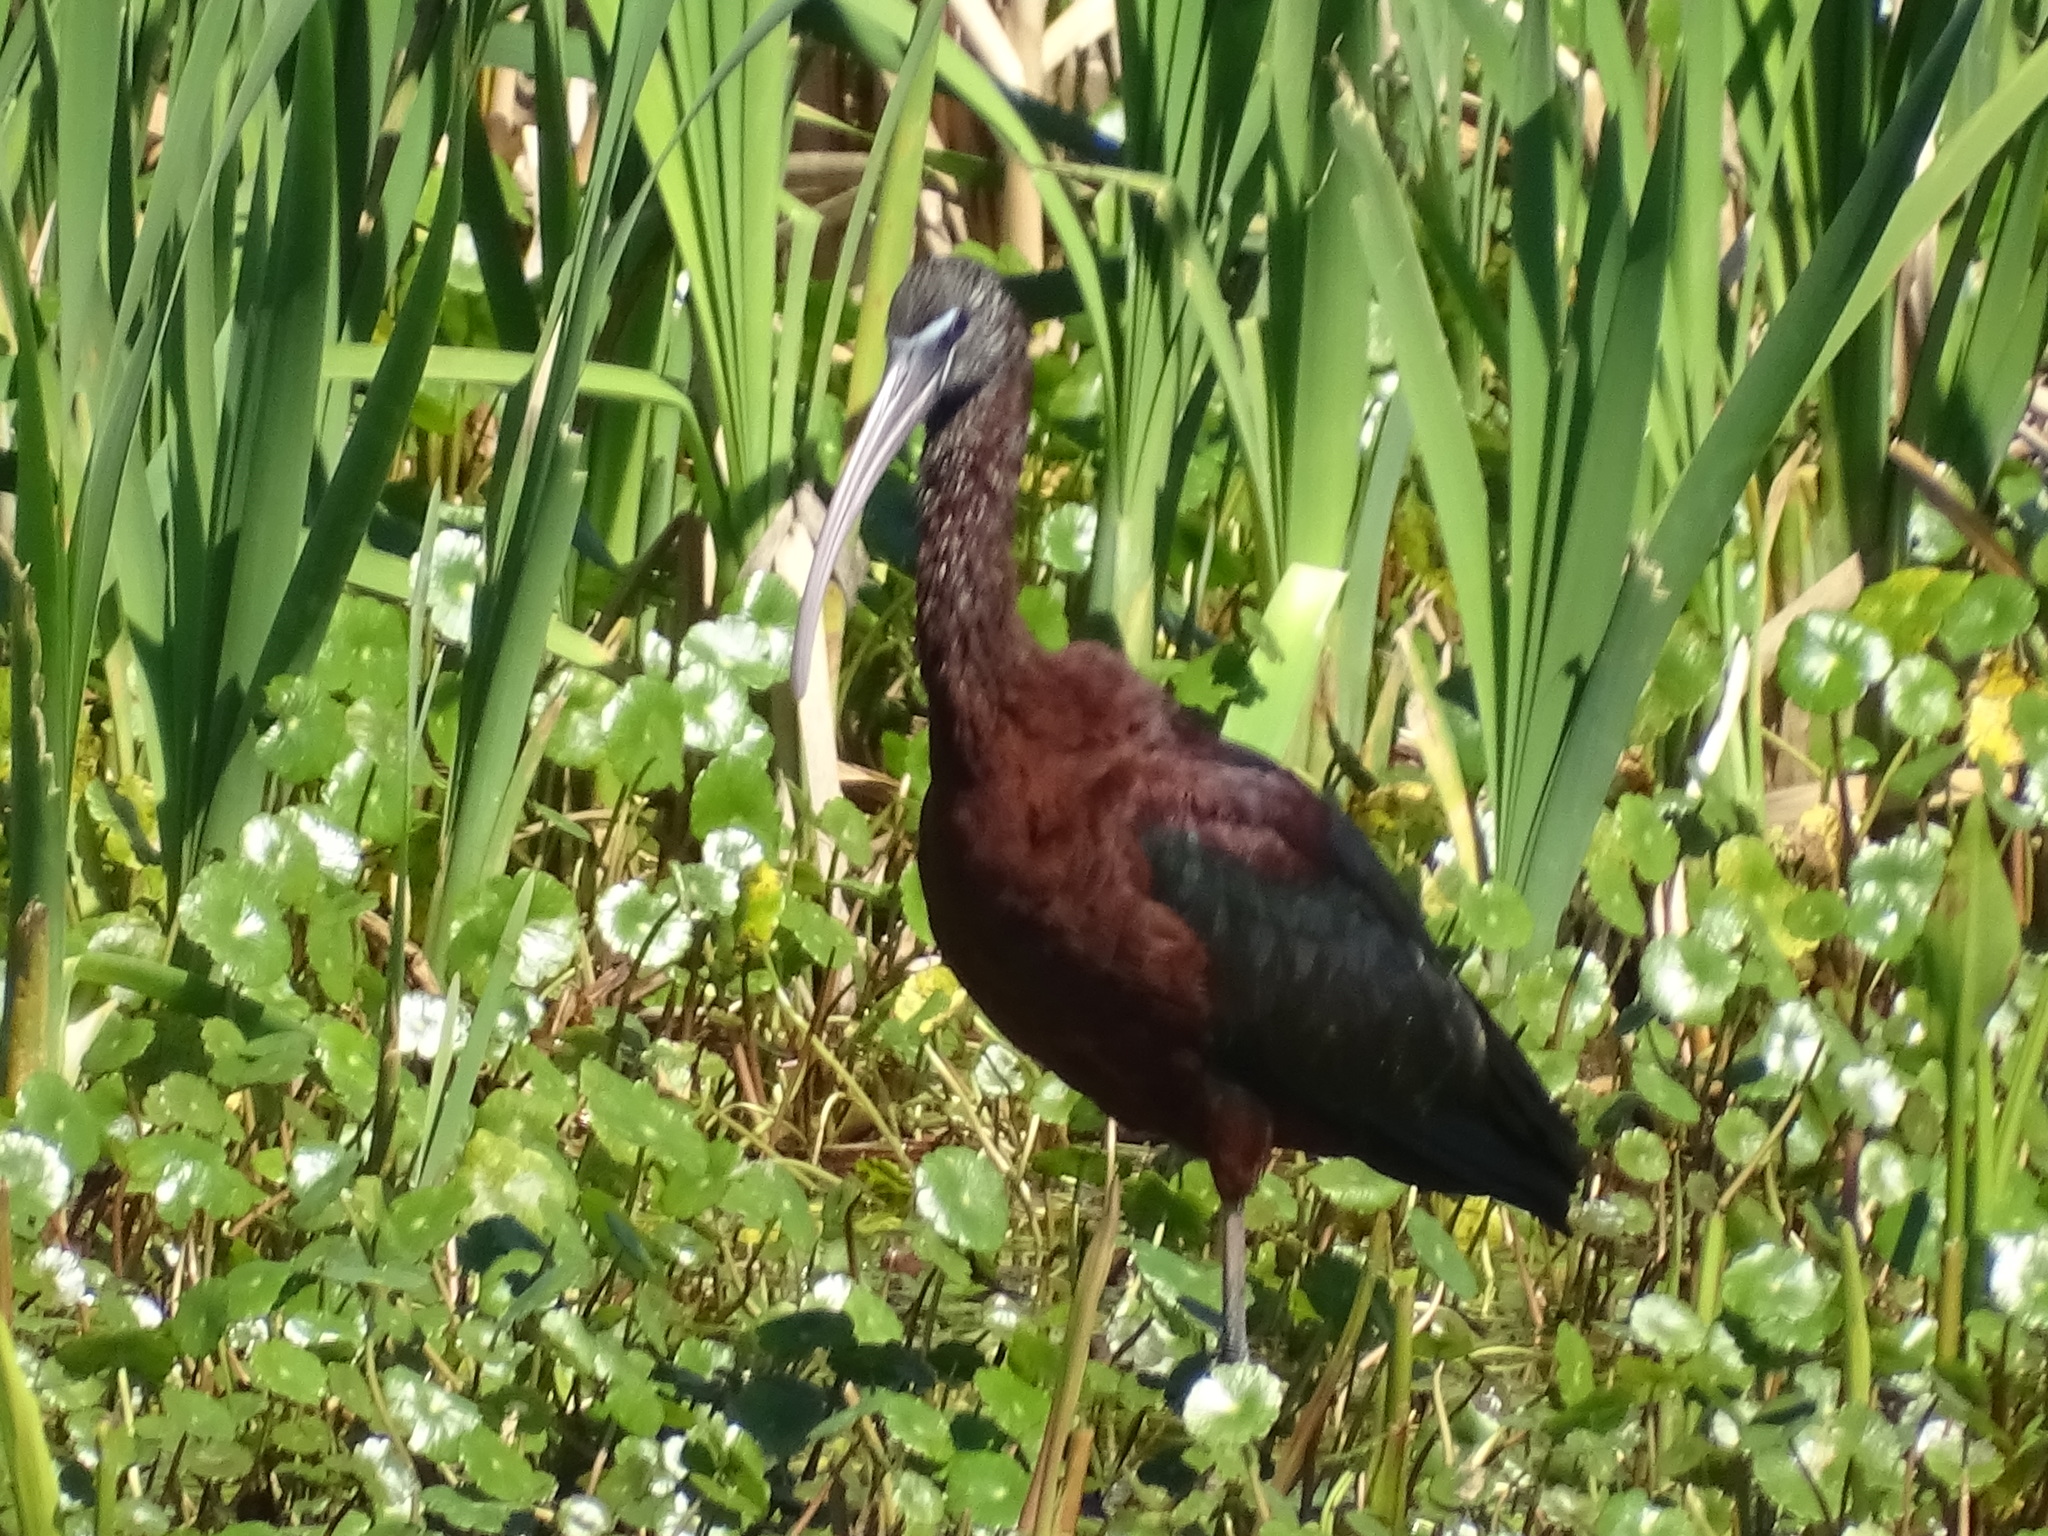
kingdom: Animalia
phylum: Chordata
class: Aves
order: Pelecaniformes
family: Threskiornithidae
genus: Plegadis
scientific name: Plegadis falcinellus
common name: Glossy ibis
